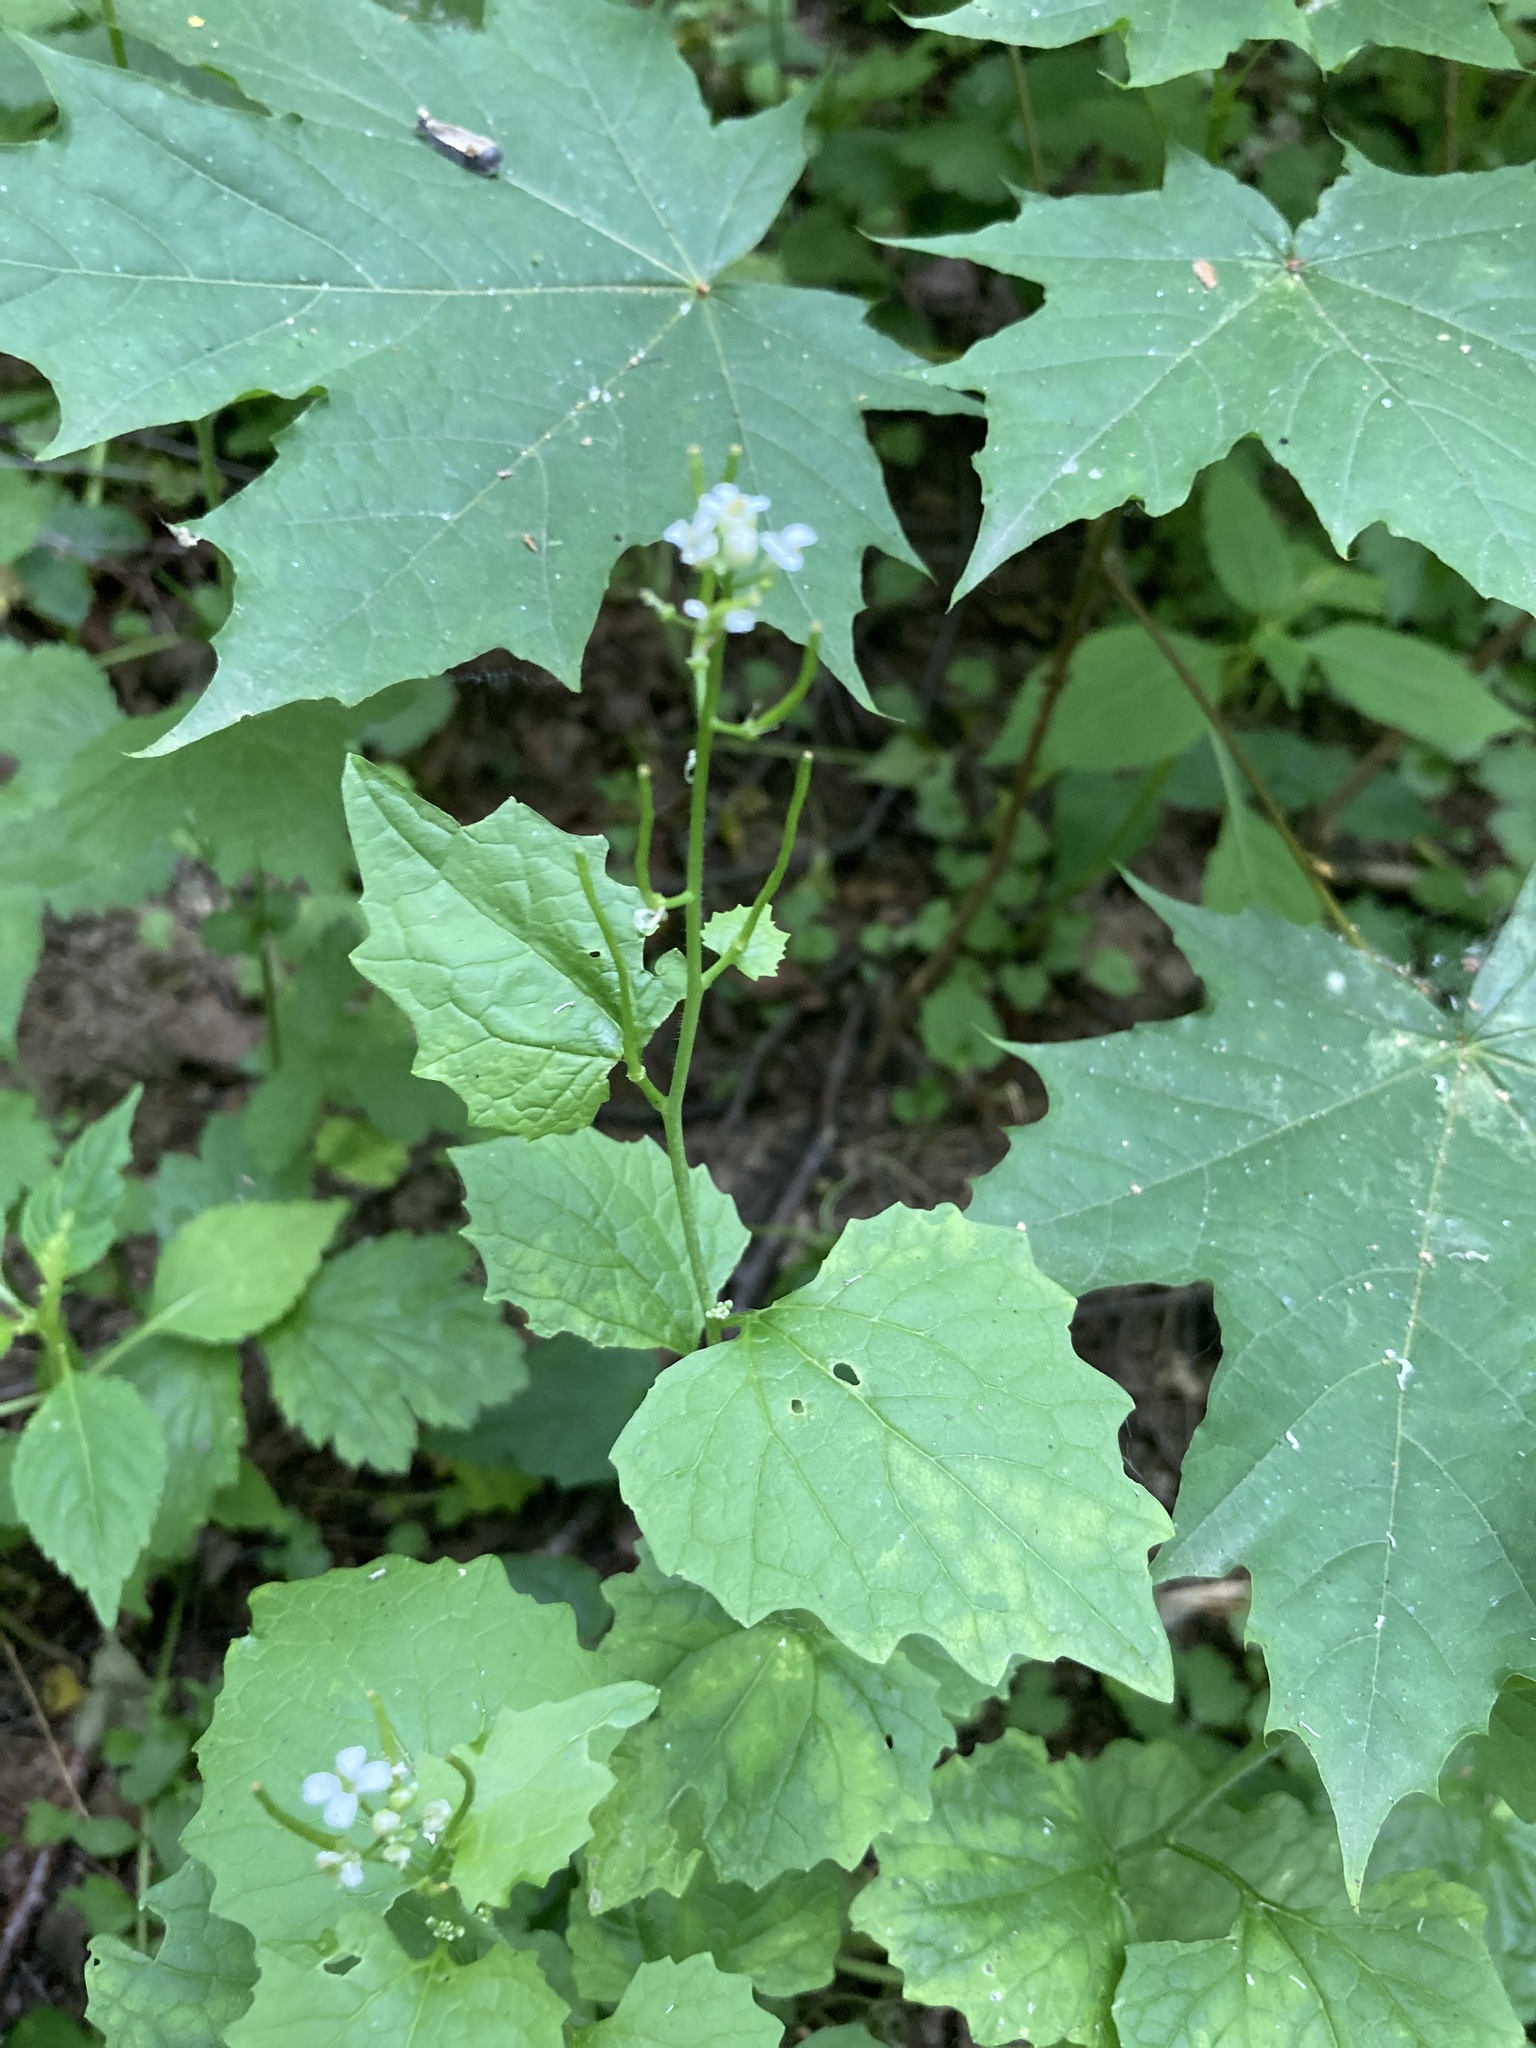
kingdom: Plantae
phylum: Tracheophyta
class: Magnoliopsida
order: Brassicales
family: Brassicaceae
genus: Alliaria
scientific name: Alliaria petiolata
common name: Garlic mustard
